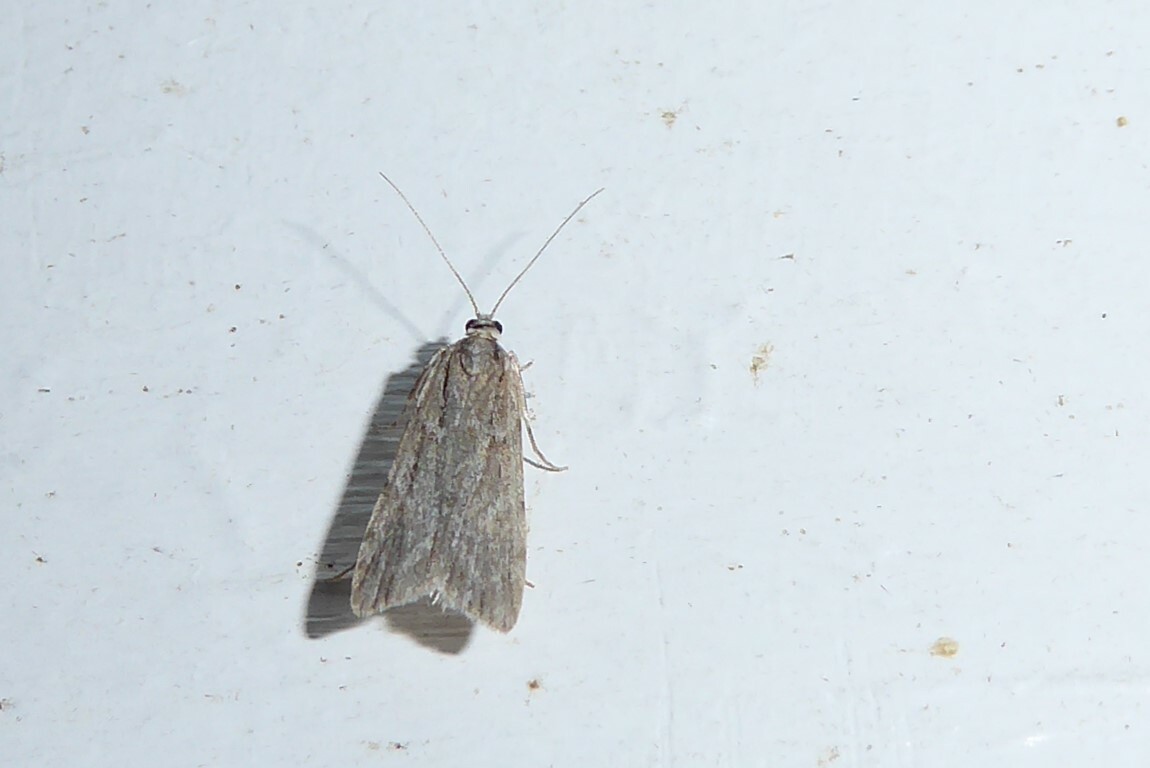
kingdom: Animalia
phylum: Arthropoda
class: Insecta
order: Lepidoptera
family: Crambidae
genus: Scoparia
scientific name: Scoparia chalicodes
